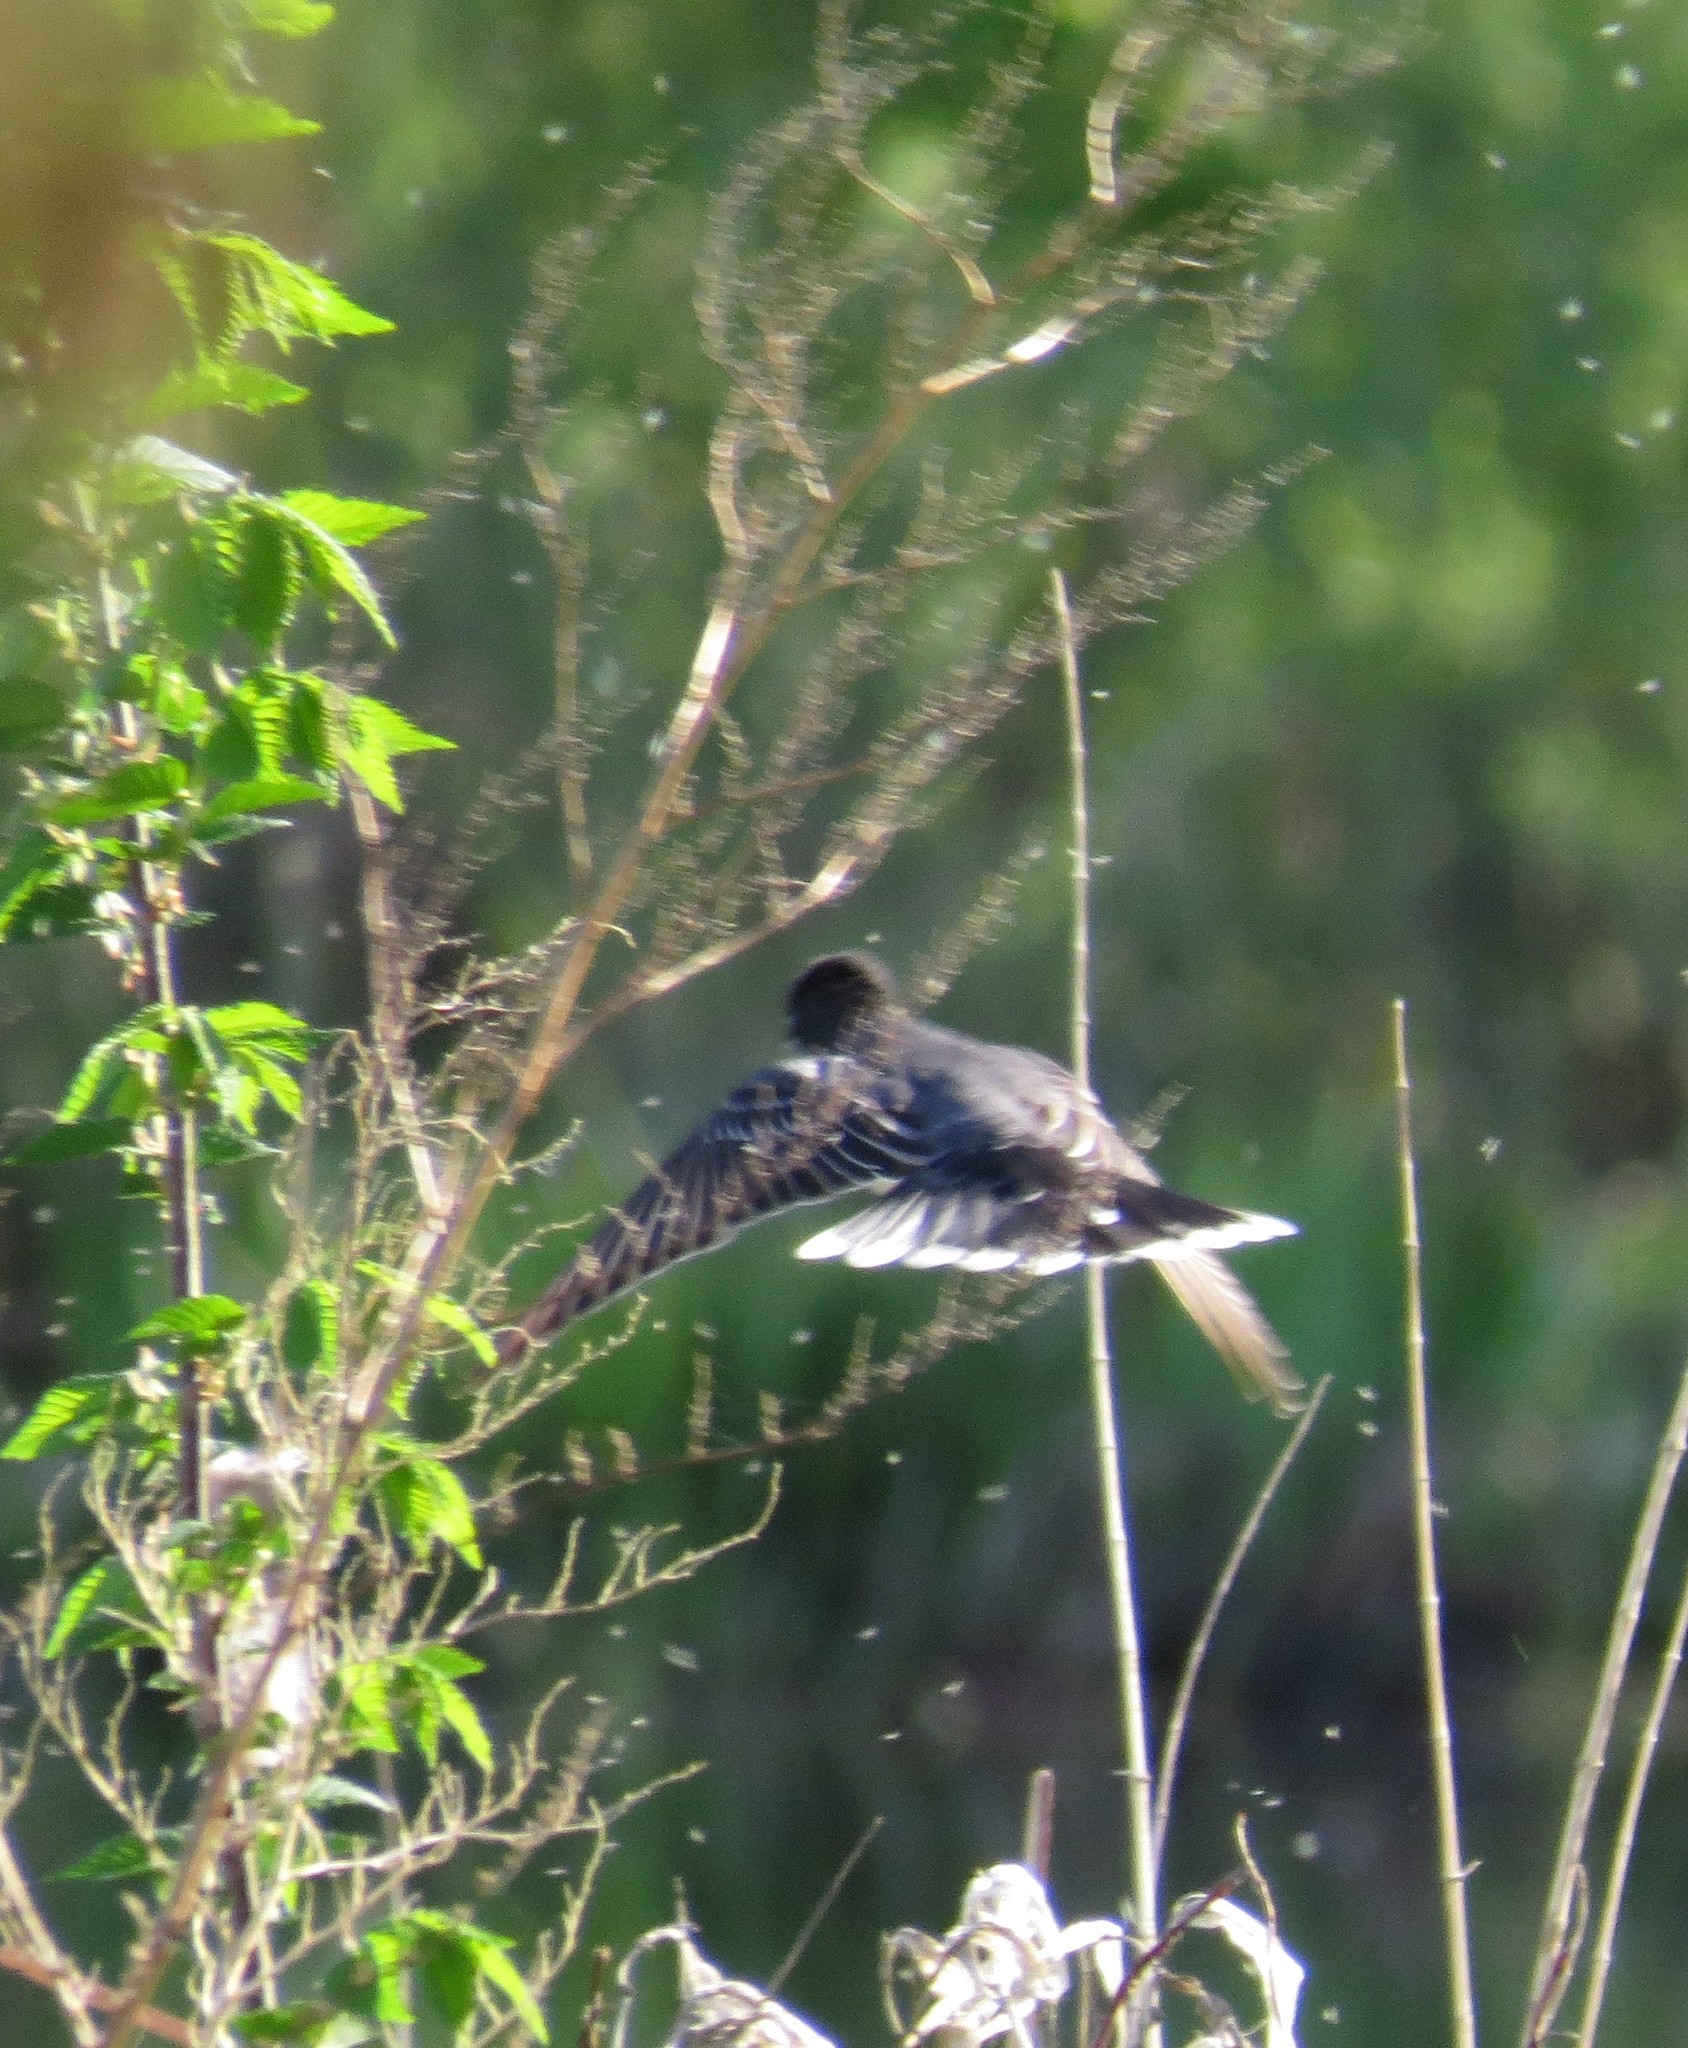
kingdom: Animalia
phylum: Chordata
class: Aves
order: Passeriformes
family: Tyrannidae
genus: Tyrannus
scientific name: Tyrannus tyrannus
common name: Eastern kingbird
